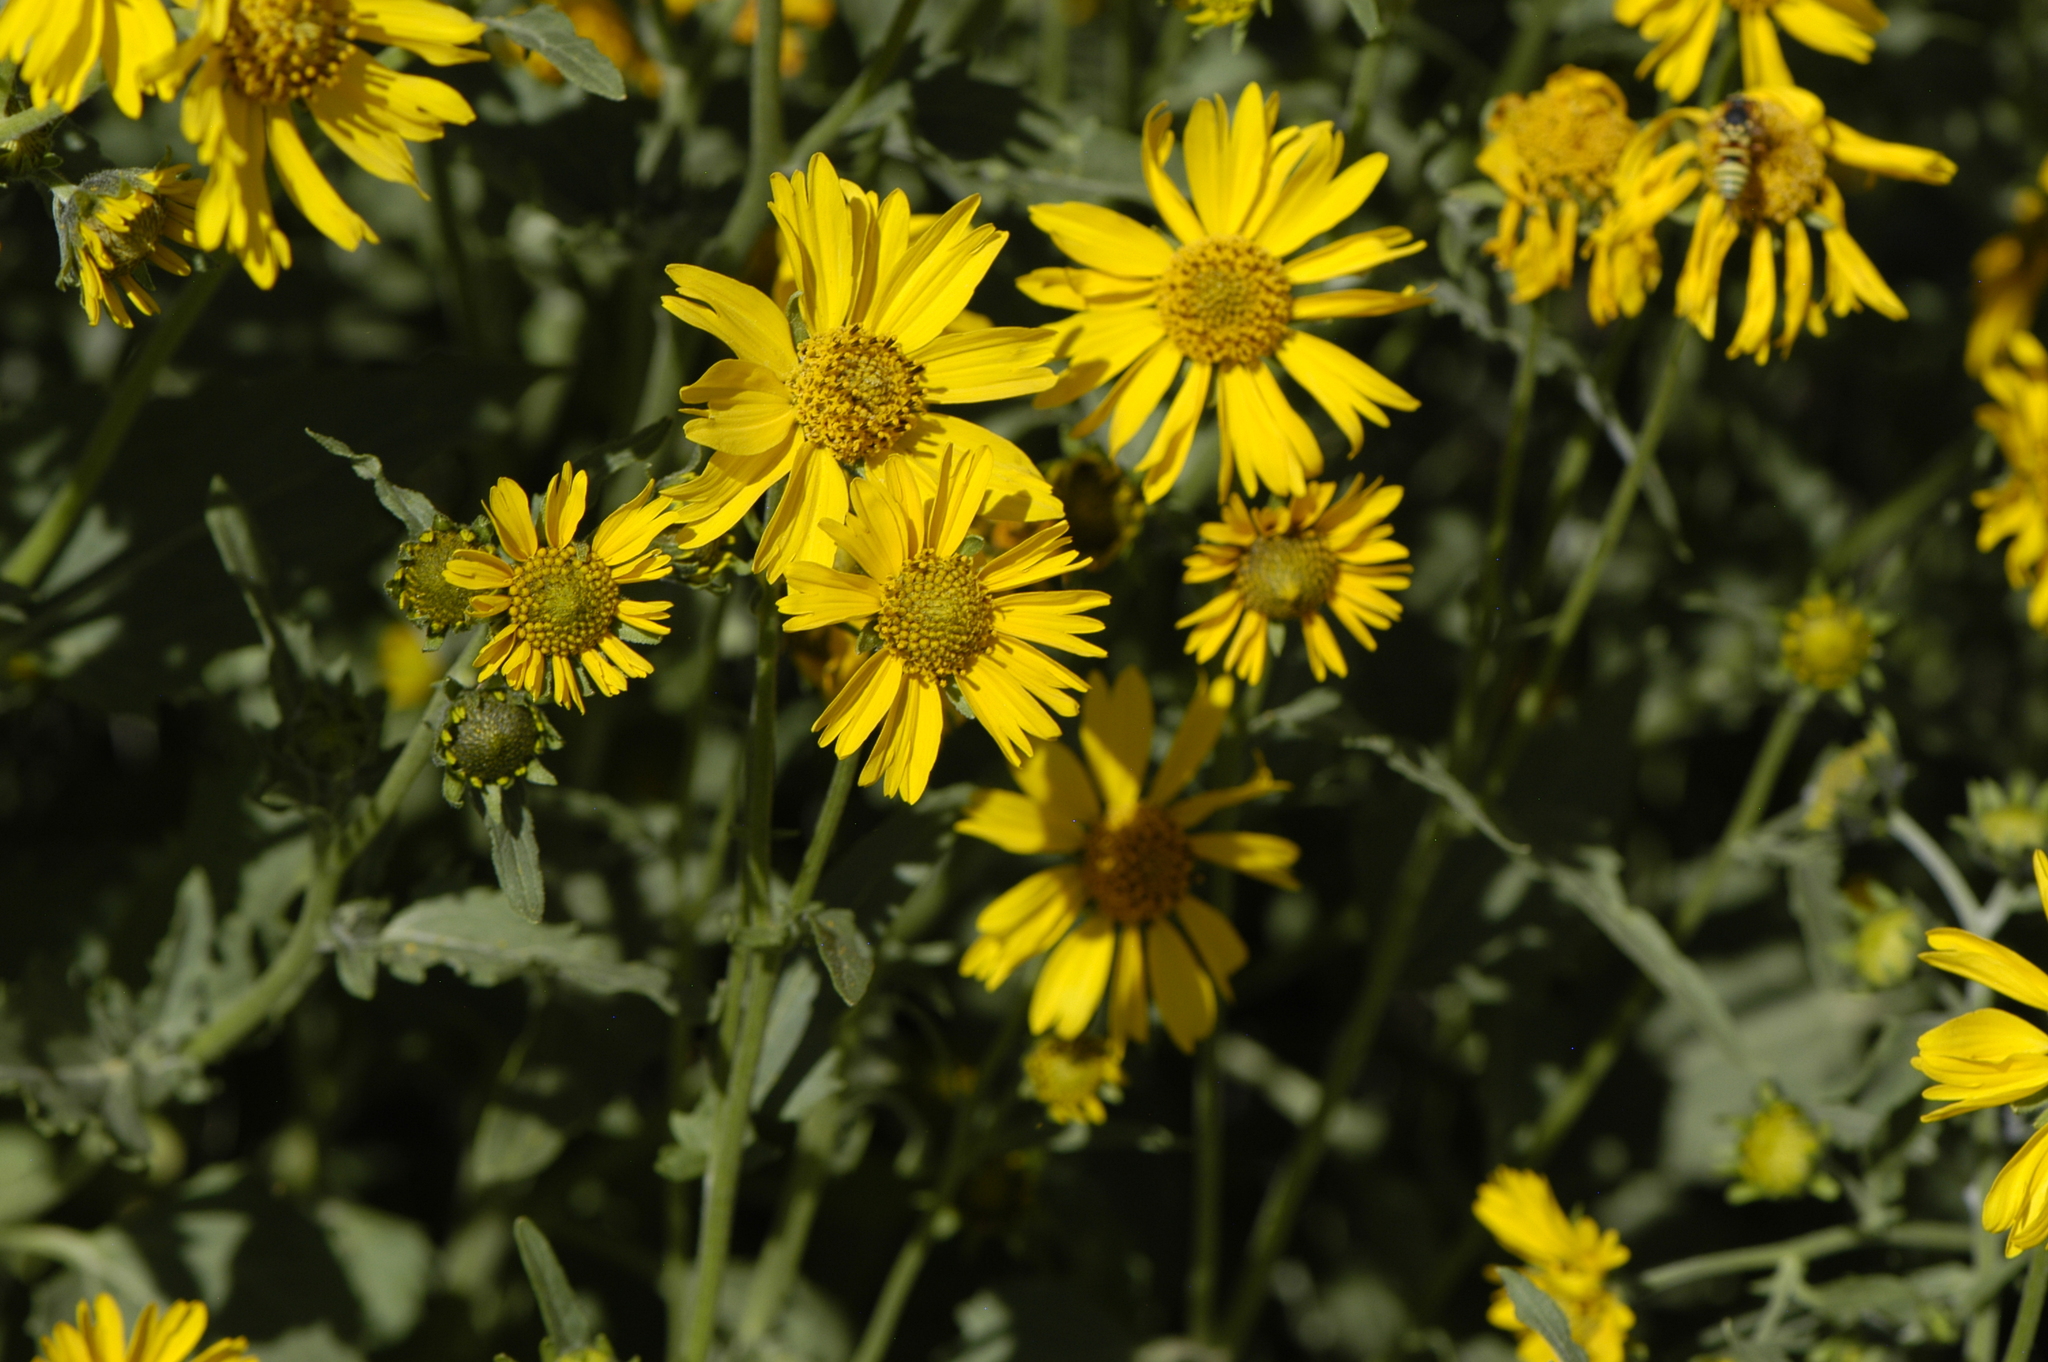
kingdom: Plantae
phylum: Tracheophyta
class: Magnoliopsida
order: Asterales
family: Asteraceae
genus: Verbesina
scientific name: Verbesina encelioides
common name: Golden crownbeard
